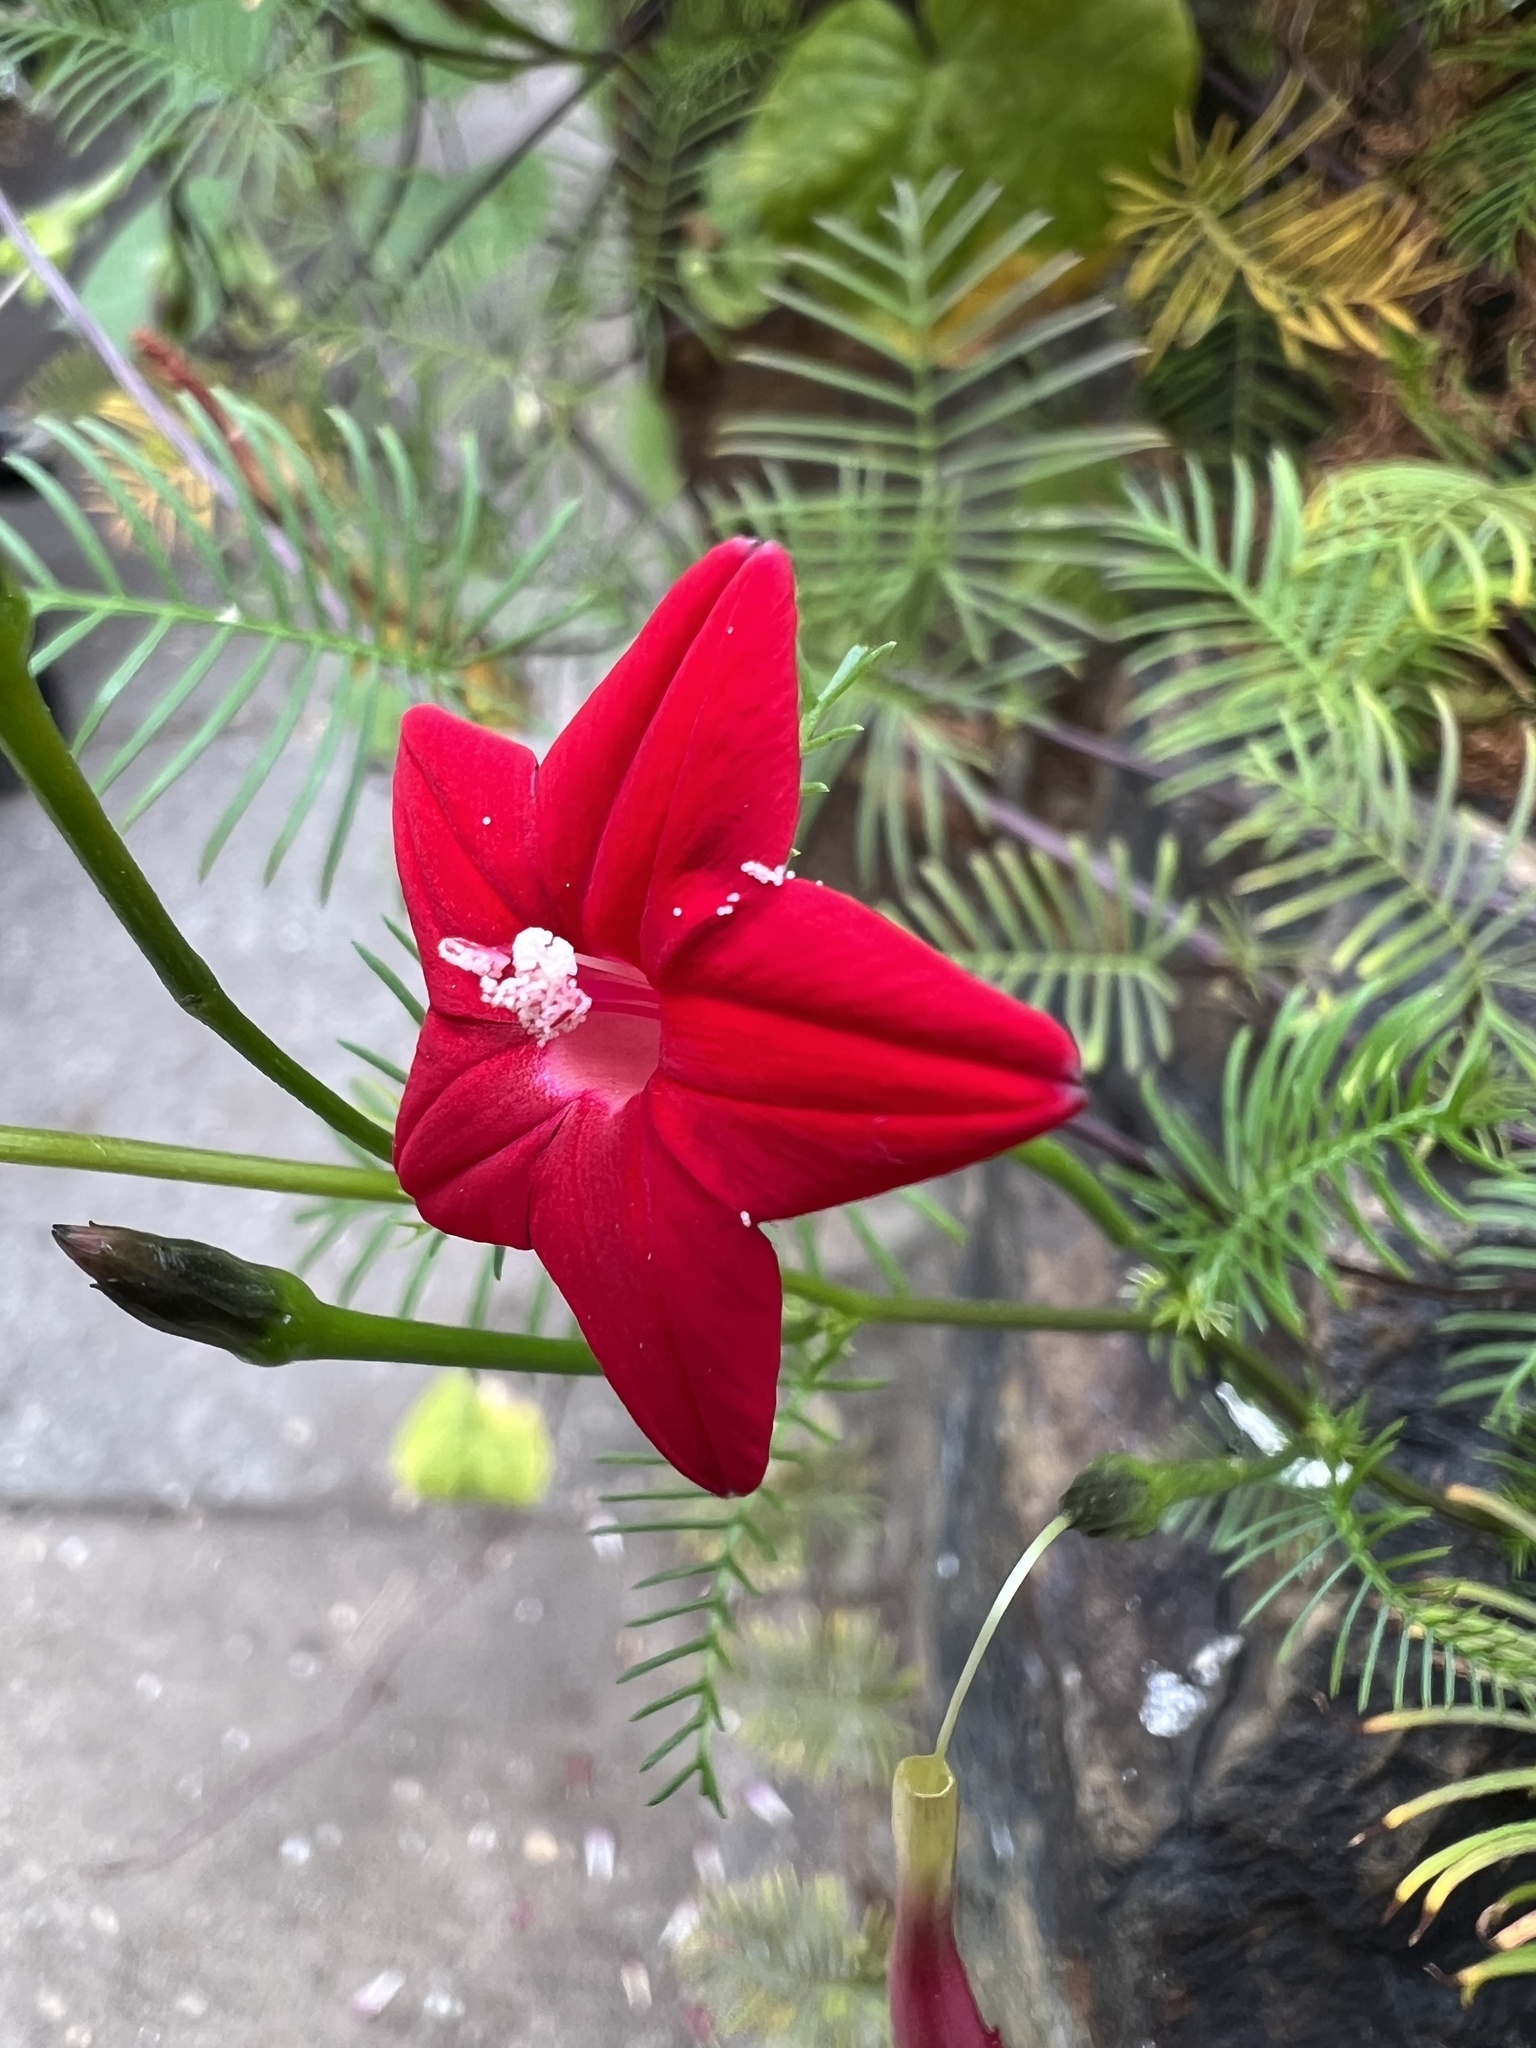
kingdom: Plantae
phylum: Tracheophyta
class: Magnoliopsida
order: Solanales
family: Convolvulaceae
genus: Ipomoea
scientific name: Ipomoea quamoclit
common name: Cypress vine
